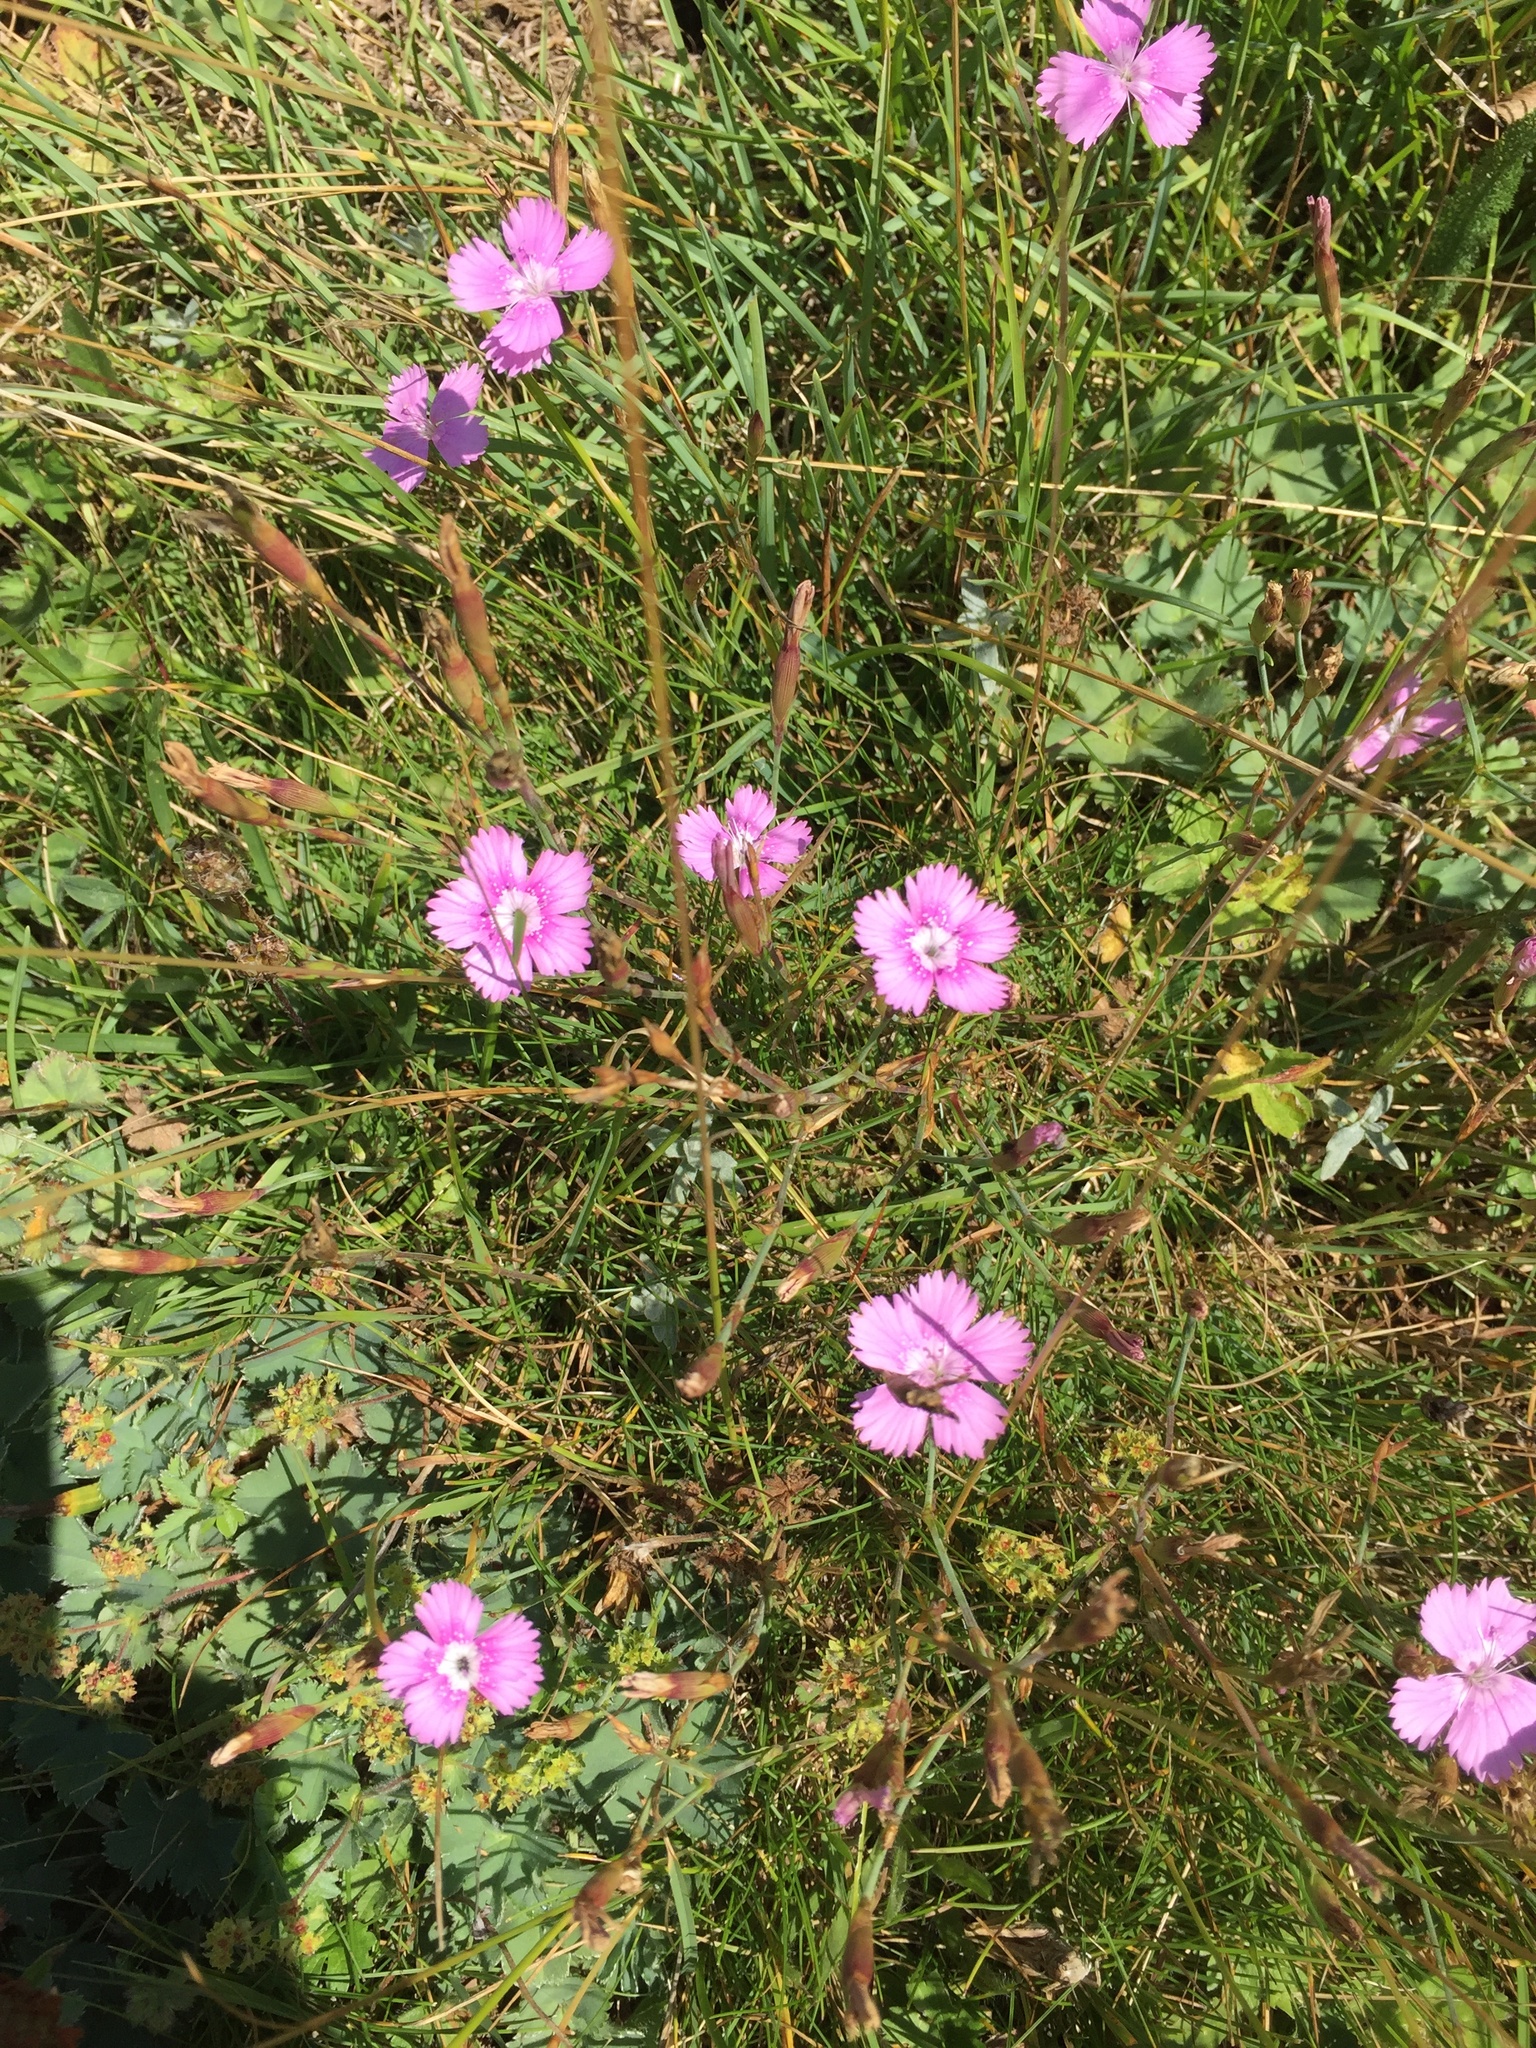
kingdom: Plantae
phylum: Tracheophyta
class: Magnoliopsida
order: Caryophyllales
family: Caryophyllaceae
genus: Dianthus
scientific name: Dianthus deltoides
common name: Maiden pink
